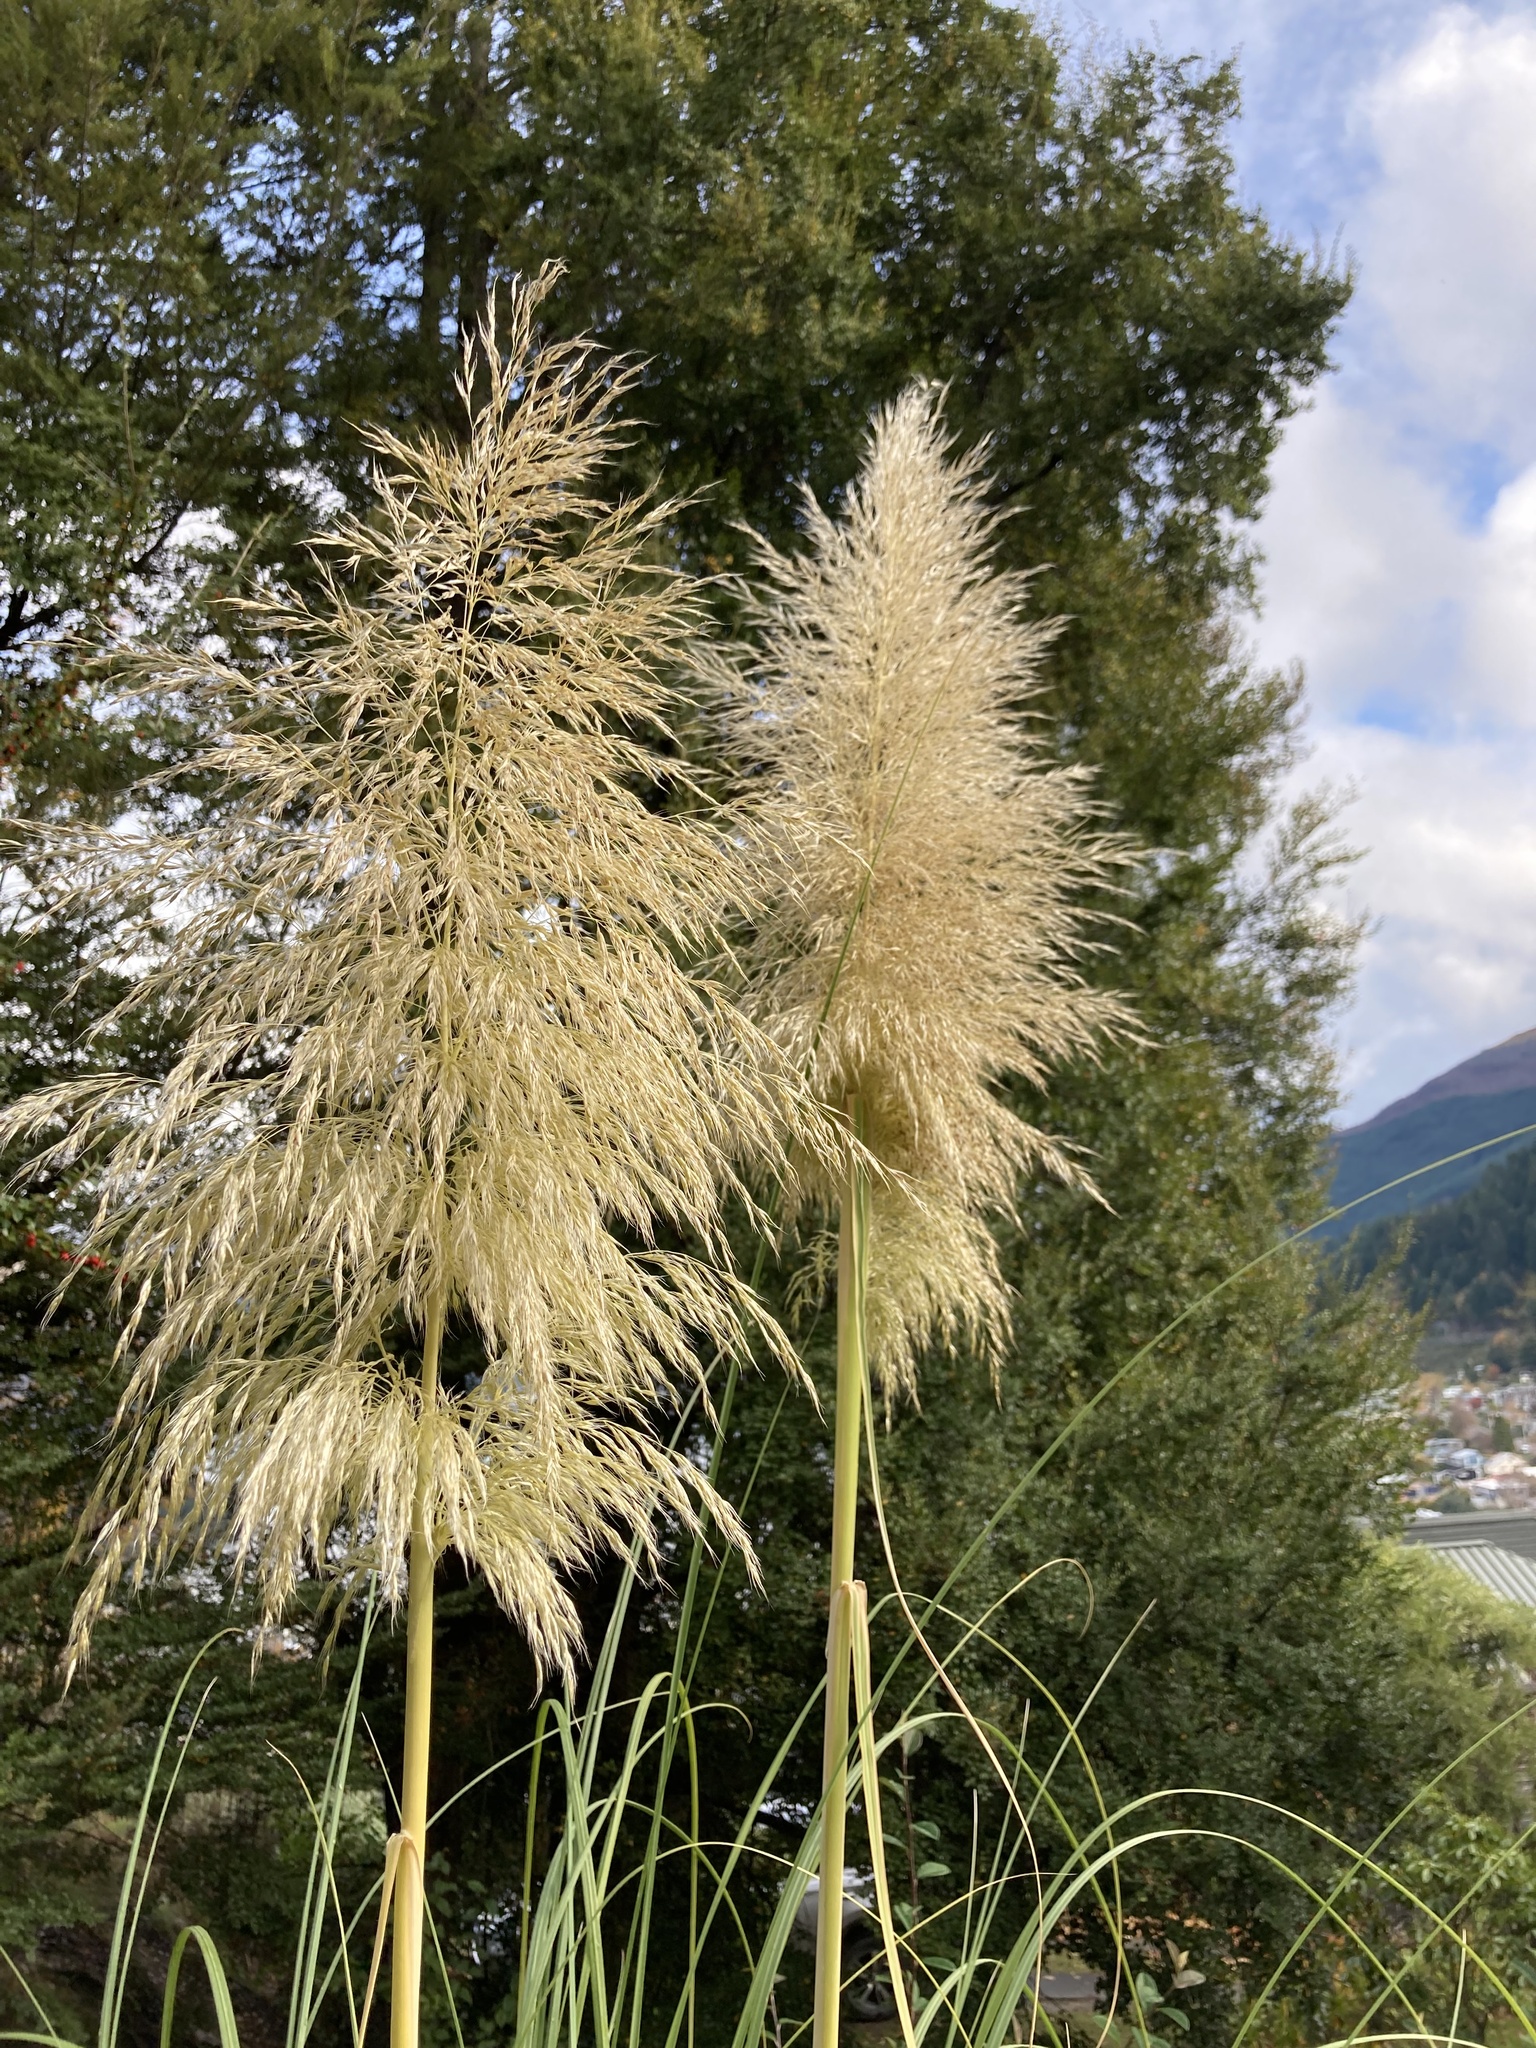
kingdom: Plantae
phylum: Tracheophyta
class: Liliopsida
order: Poales
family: Poaceae
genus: Cortaderia
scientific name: Cortaderia selloana
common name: Uruguayan pampas grass
